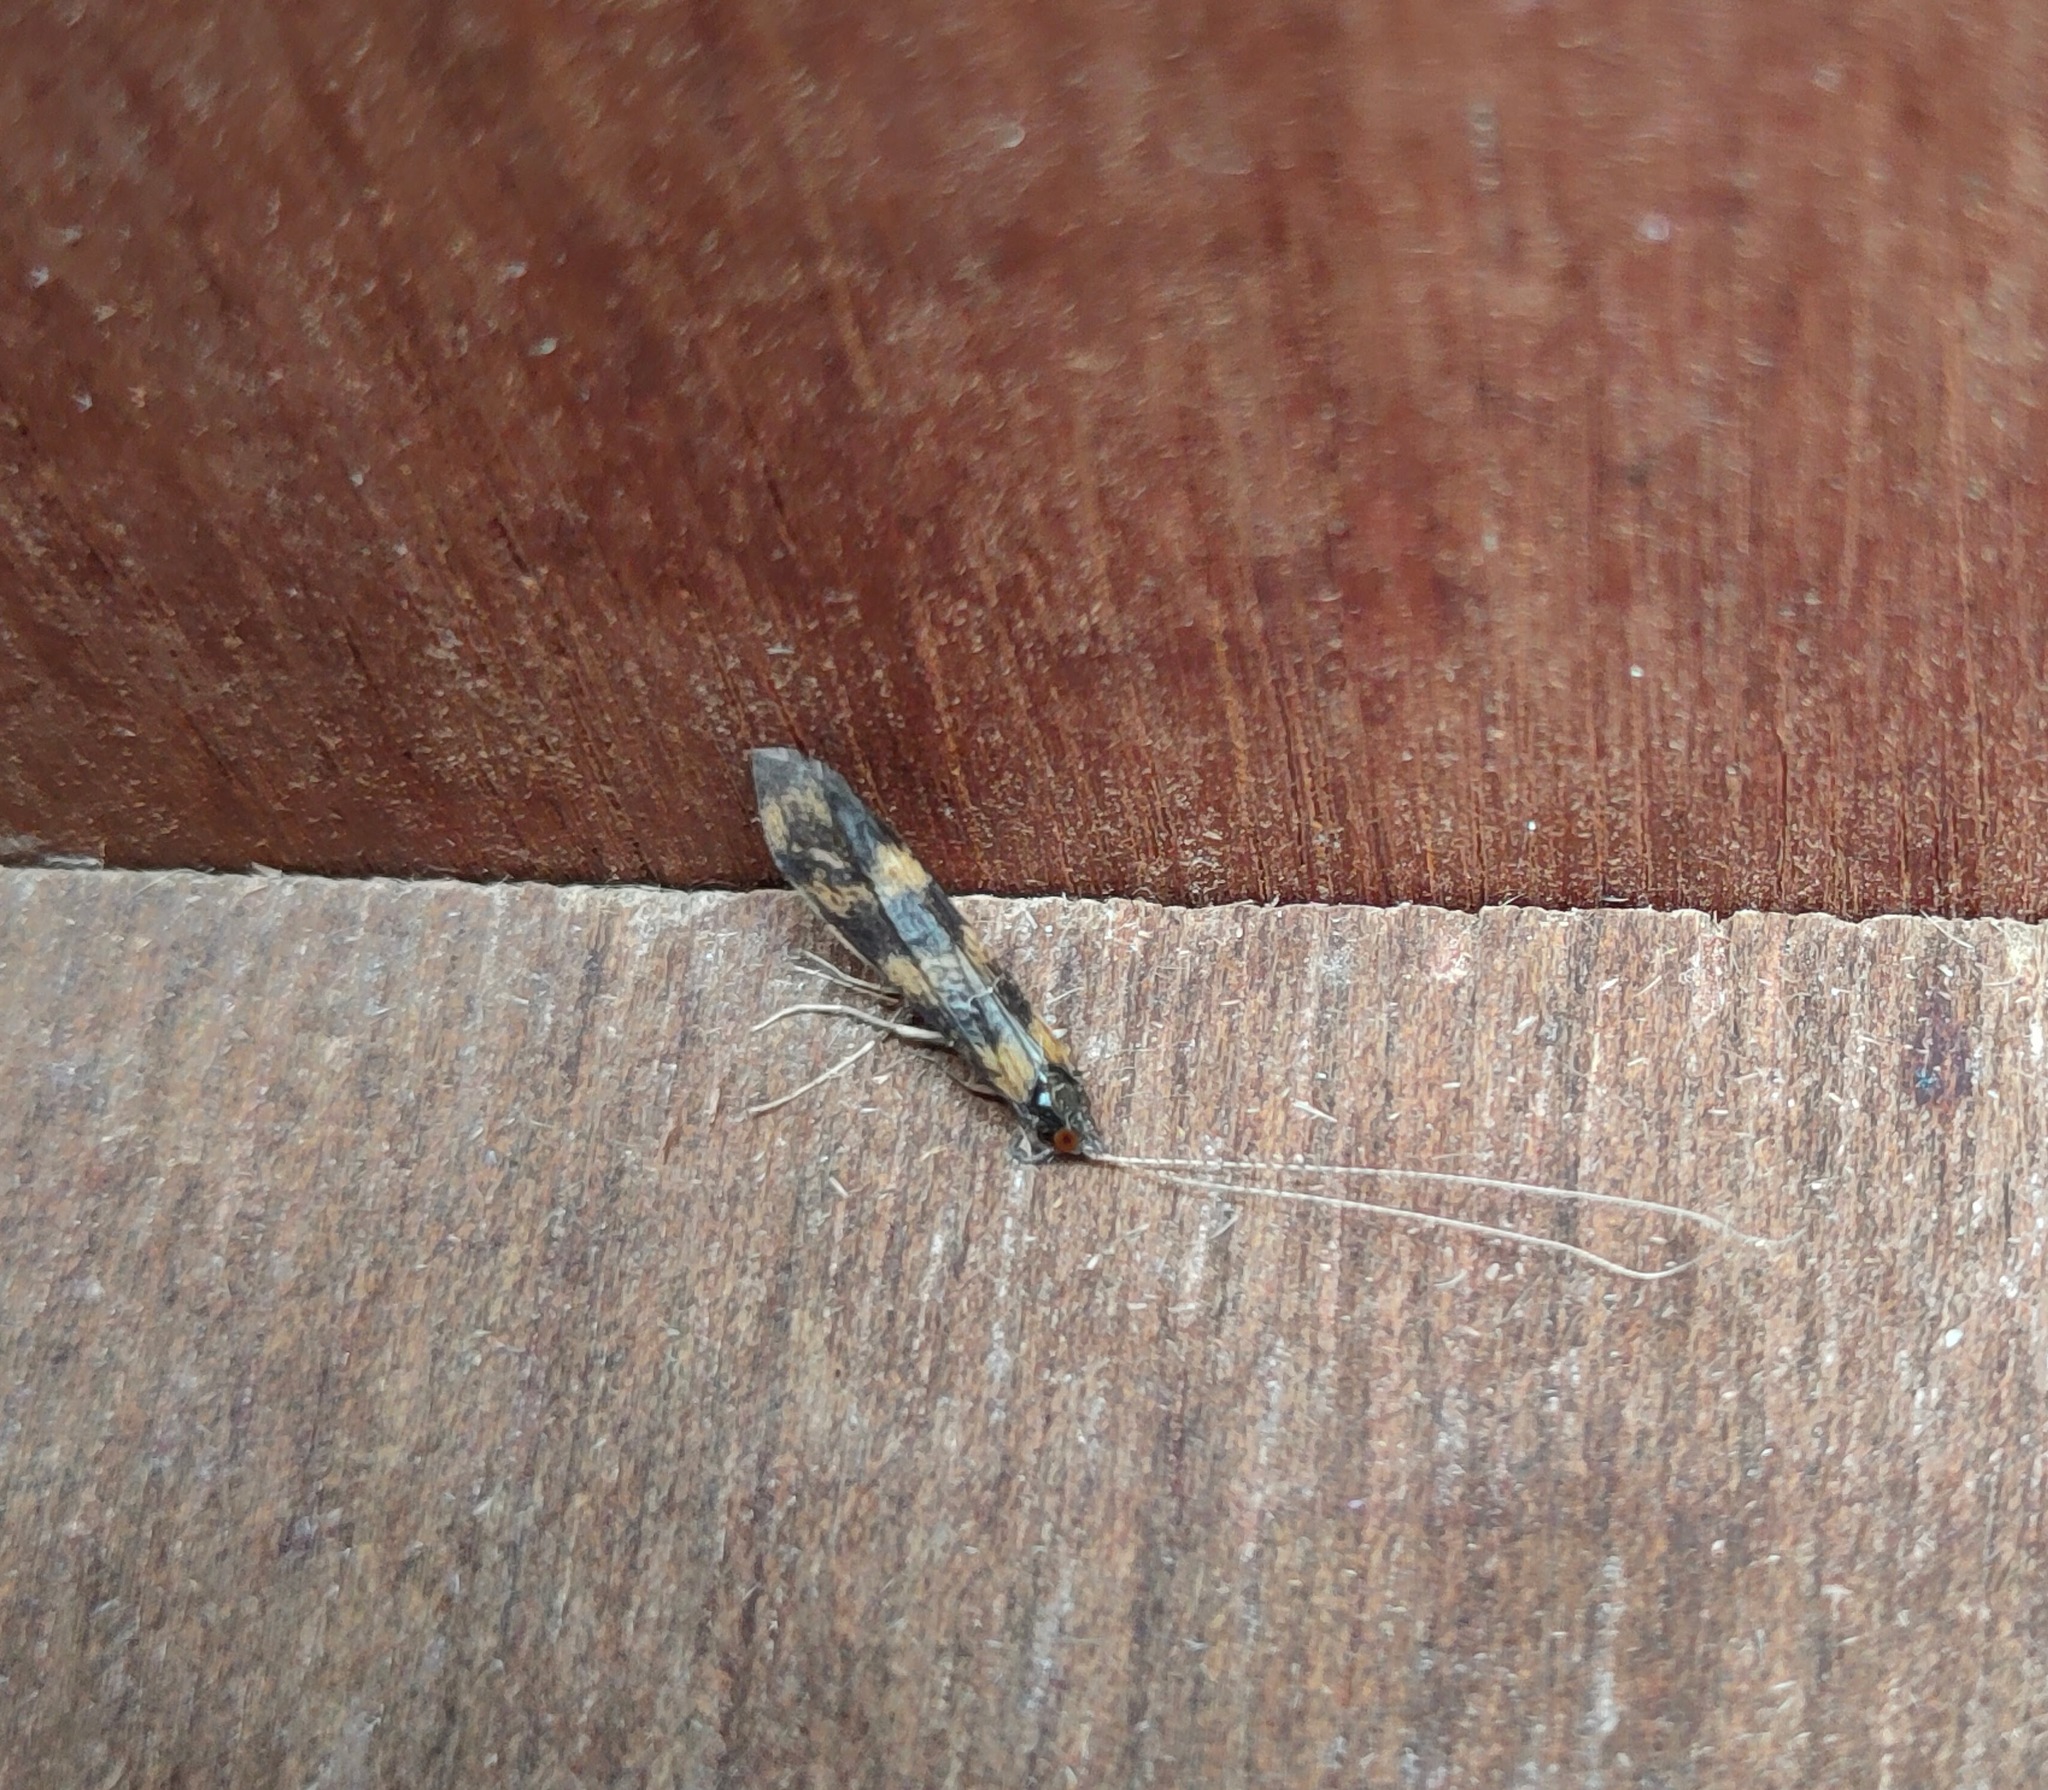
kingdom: Animalia
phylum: Arthropoda
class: Insecta
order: Trichoptera
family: Leptoceridae
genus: Mystacides
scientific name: Mystacides longicornis
